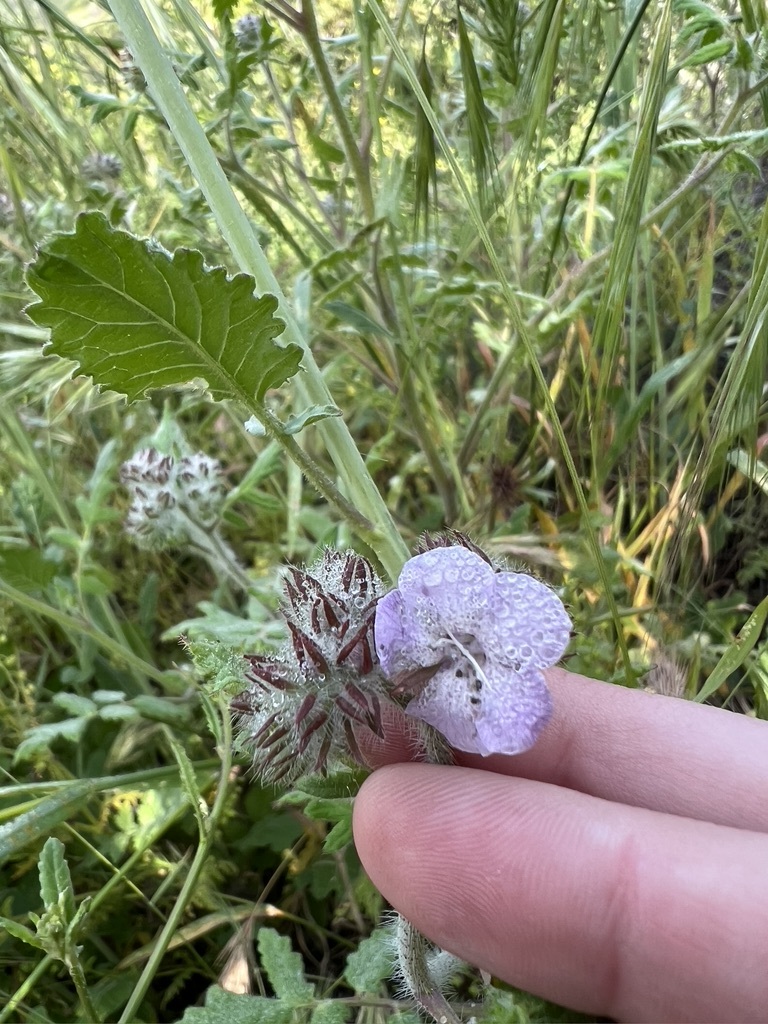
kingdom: Plantae
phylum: Tracheophyta
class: Magnoliopsida
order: Boraginales
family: Hydrophyllaceae
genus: Phacelia
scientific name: Phacelia cicutaria
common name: Caterpillar phacelia
